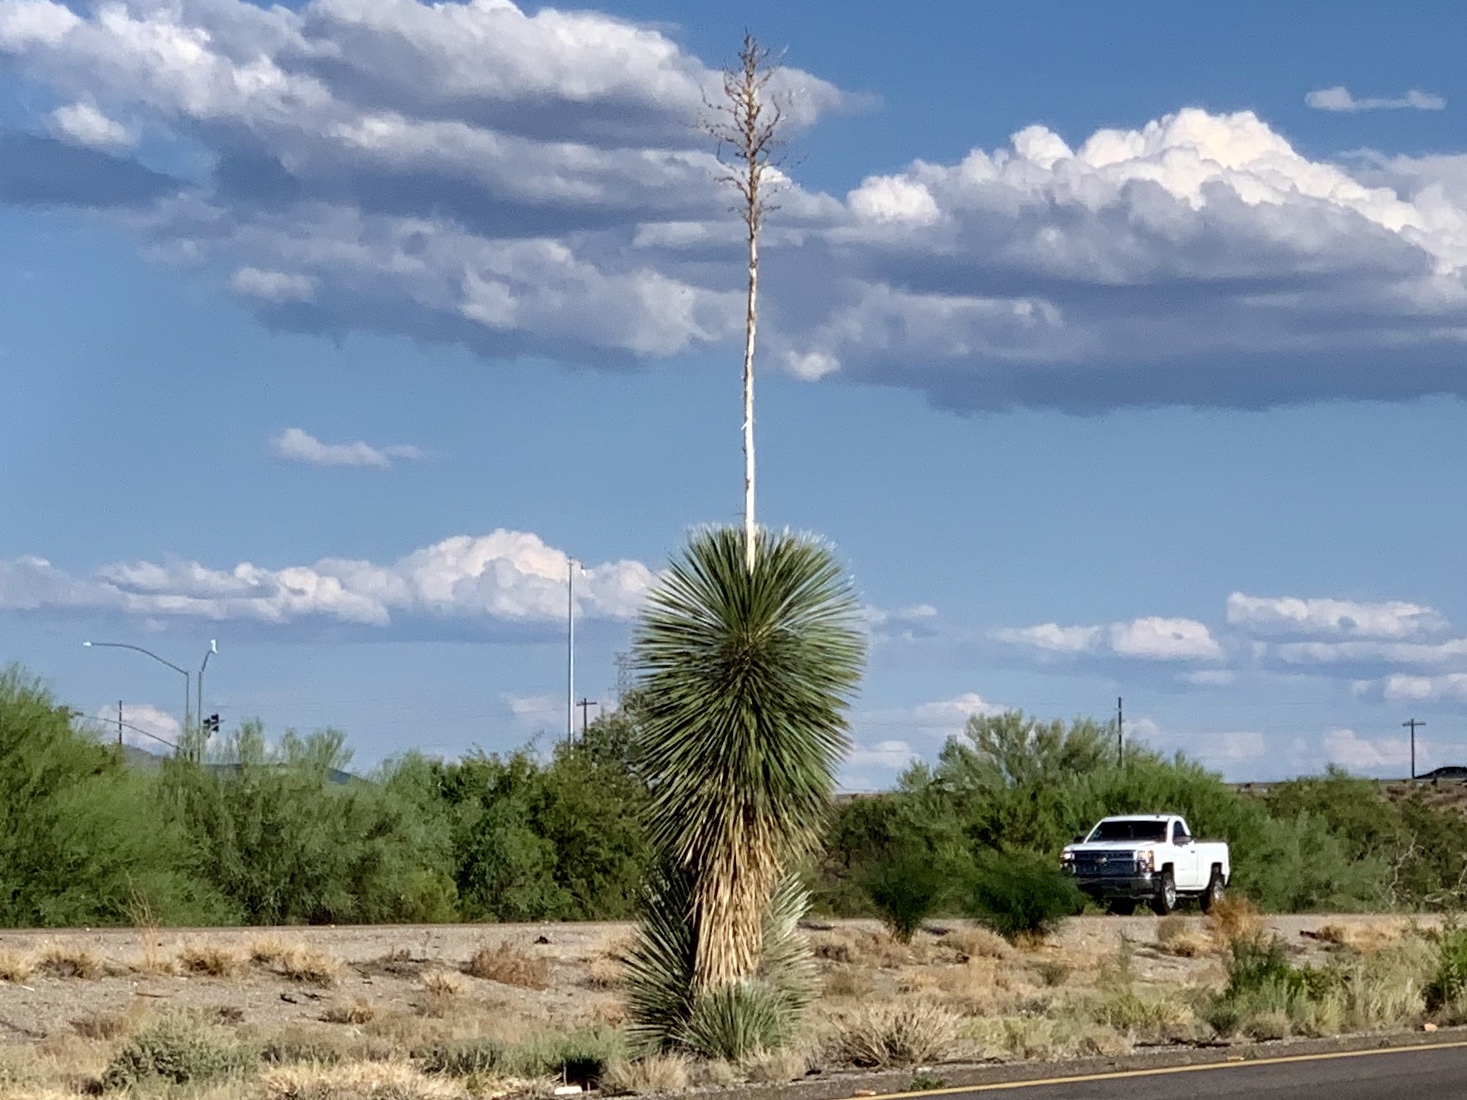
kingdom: Plantae
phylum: Tracheophyta
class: Liliopsida
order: Asparagales
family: Asparagaceae
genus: Yucca
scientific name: Yucca elata
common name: Palmella
